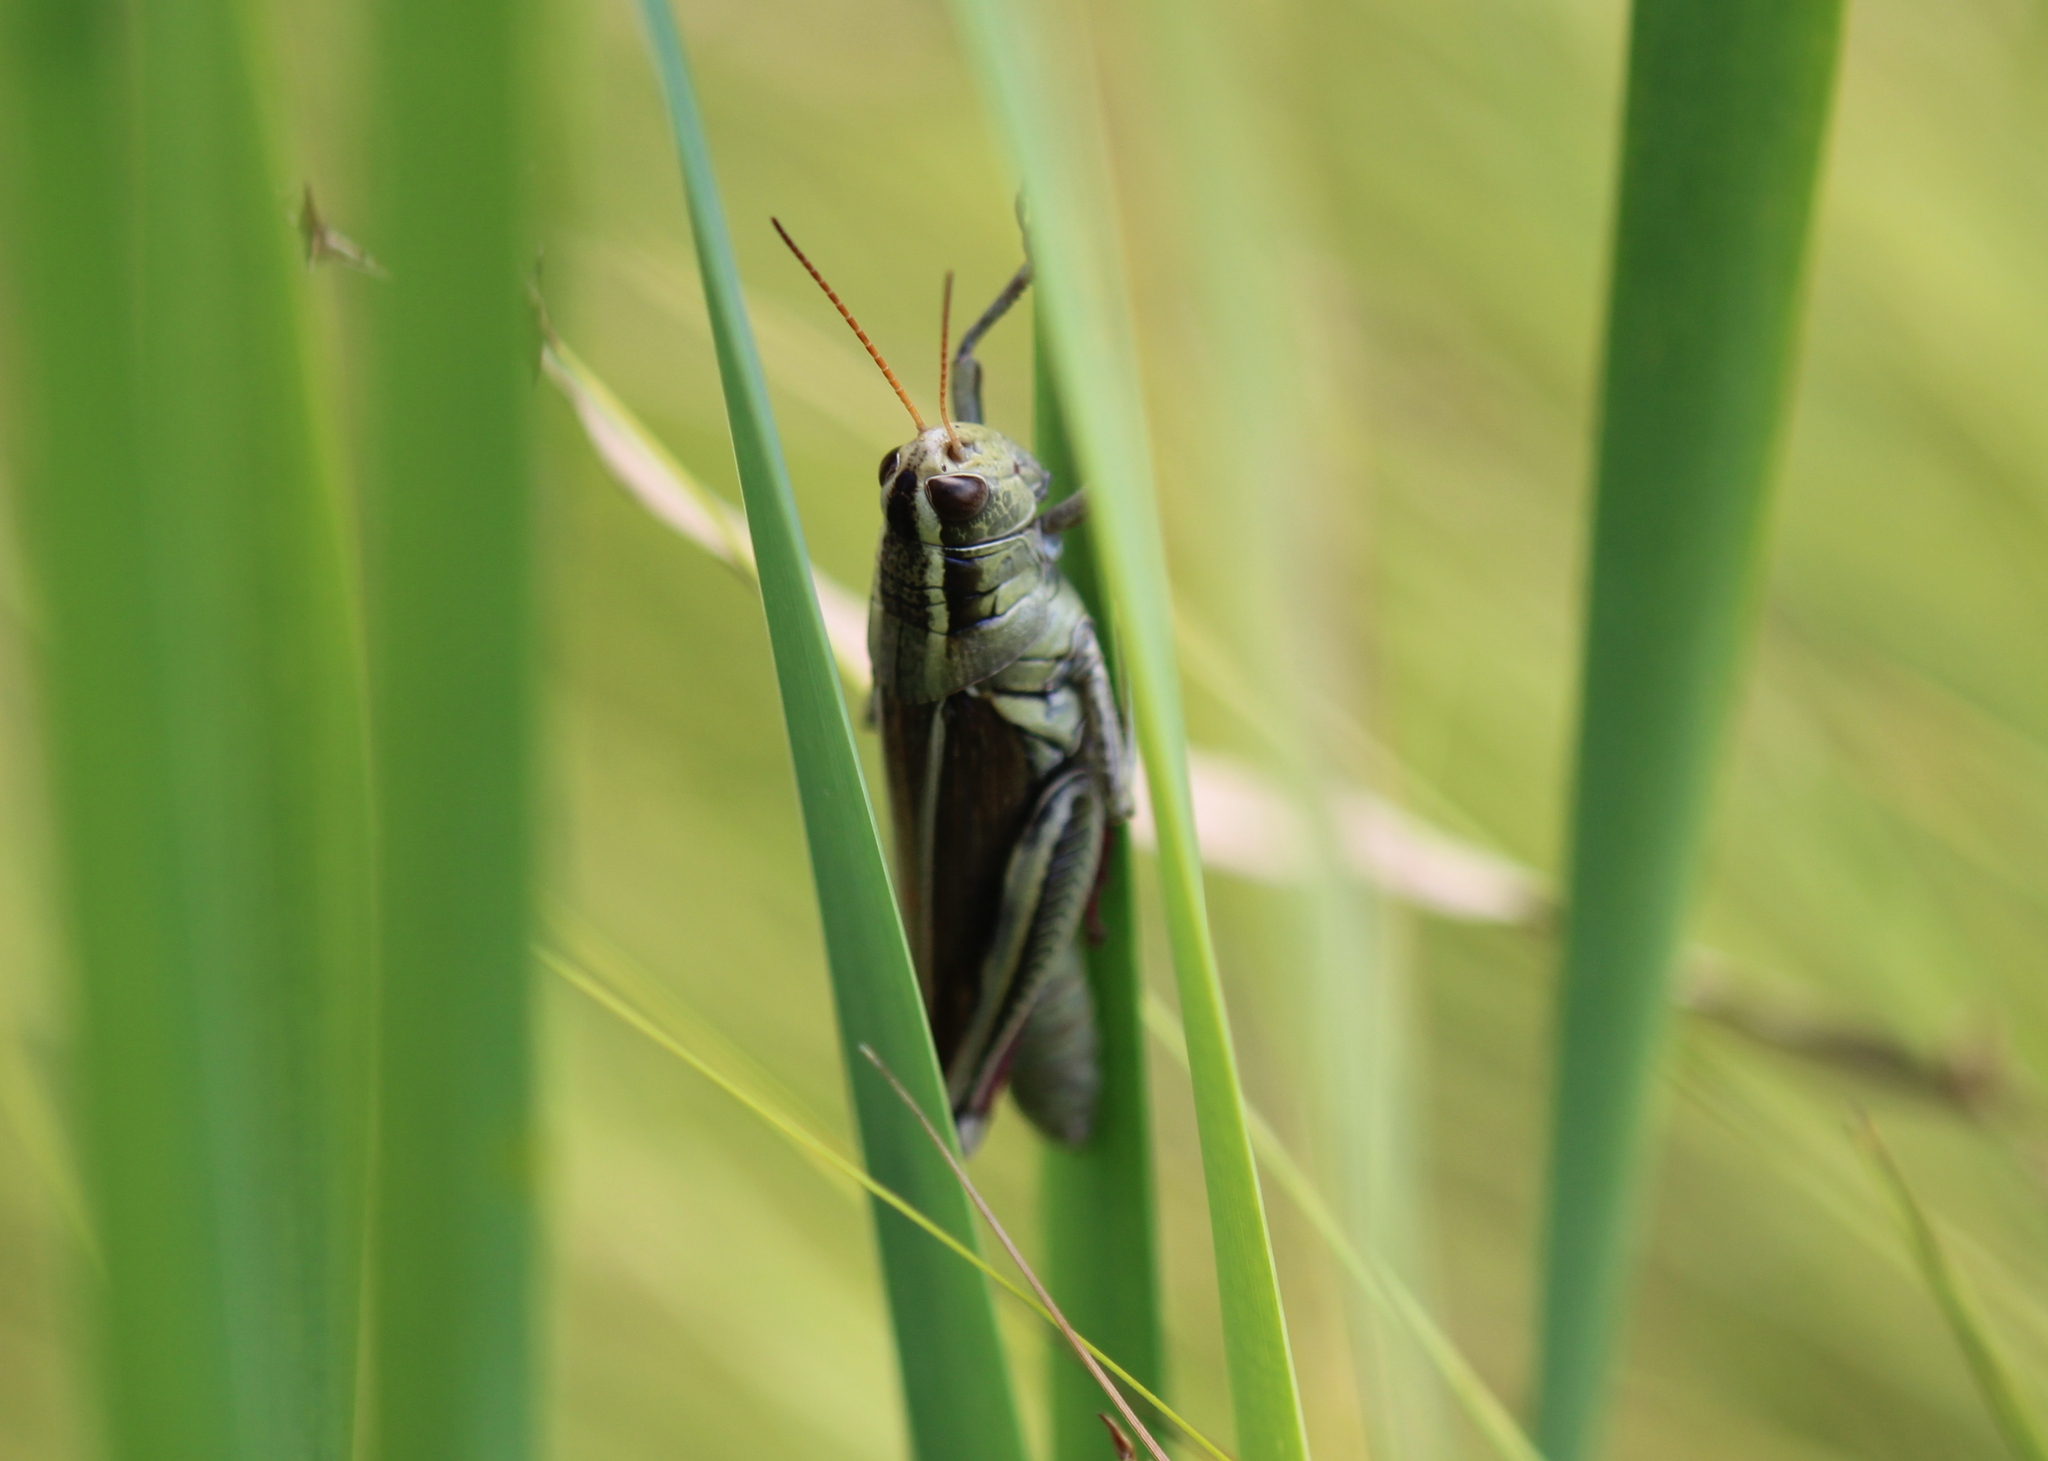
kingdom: Animalia
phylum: Arthropoda
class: Insecta
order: Orthoptera
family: Acrididae
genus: Melanoplus
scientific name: Melanoplus bivittatus
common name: Two-striped grasshopper
